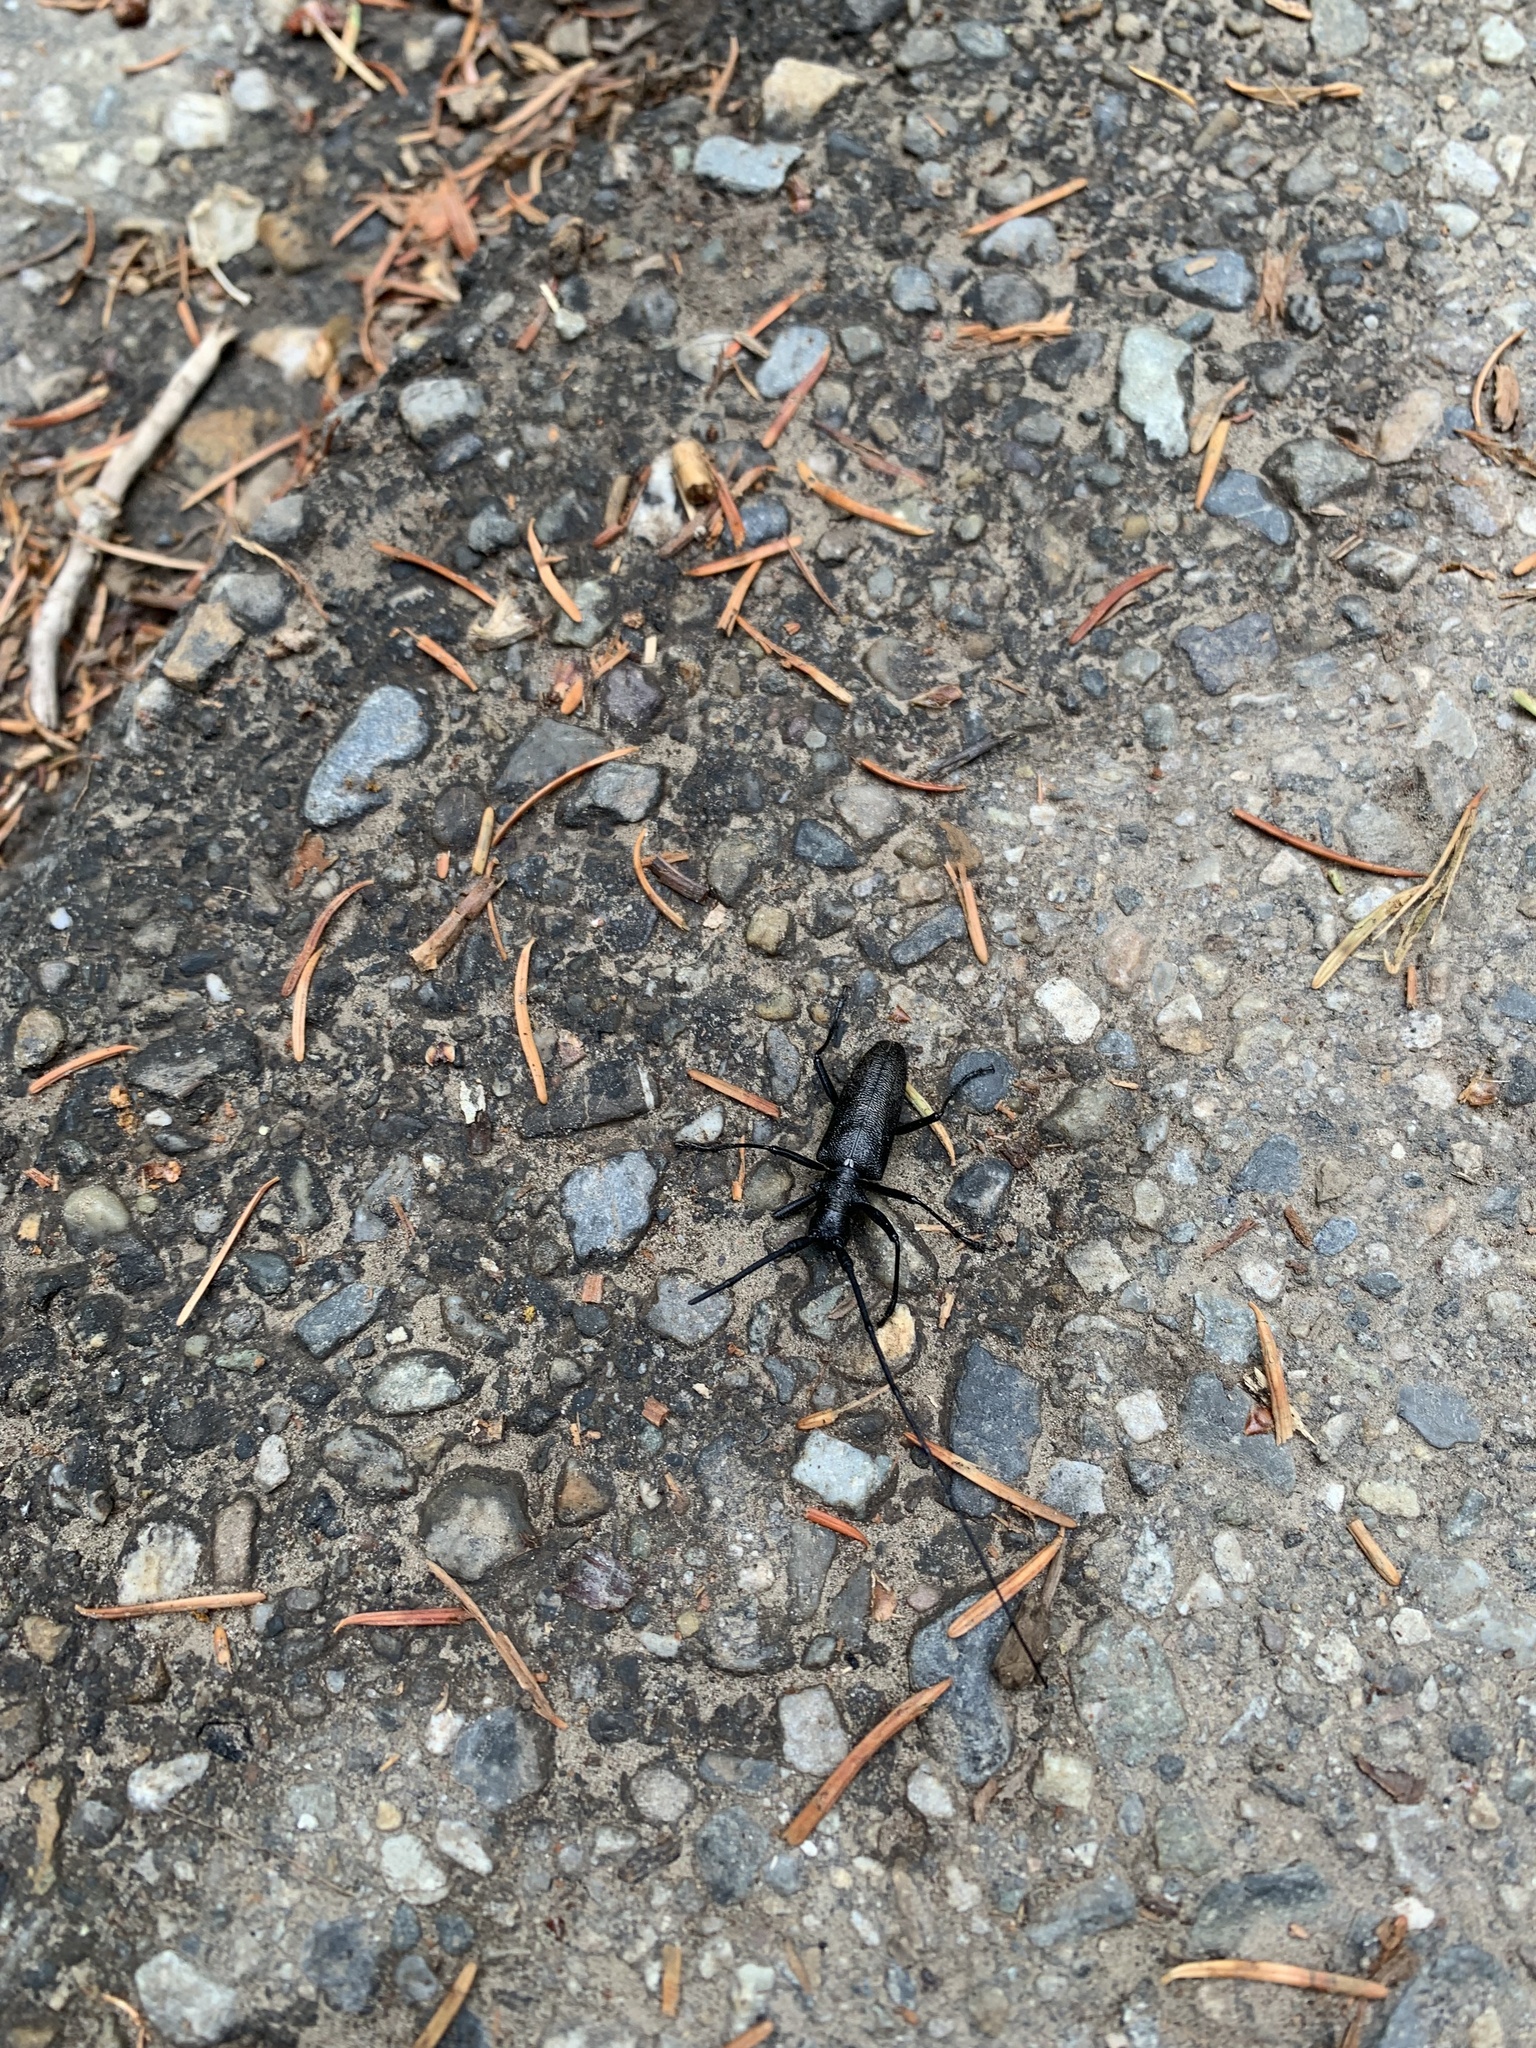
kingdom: Animalia
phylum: Arthropoda
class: Insecta
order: Coleoptera
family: Cerambycidae
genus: Monochamus
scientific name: Monochamus scutellatus
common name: White-spotted sawyer beetle
